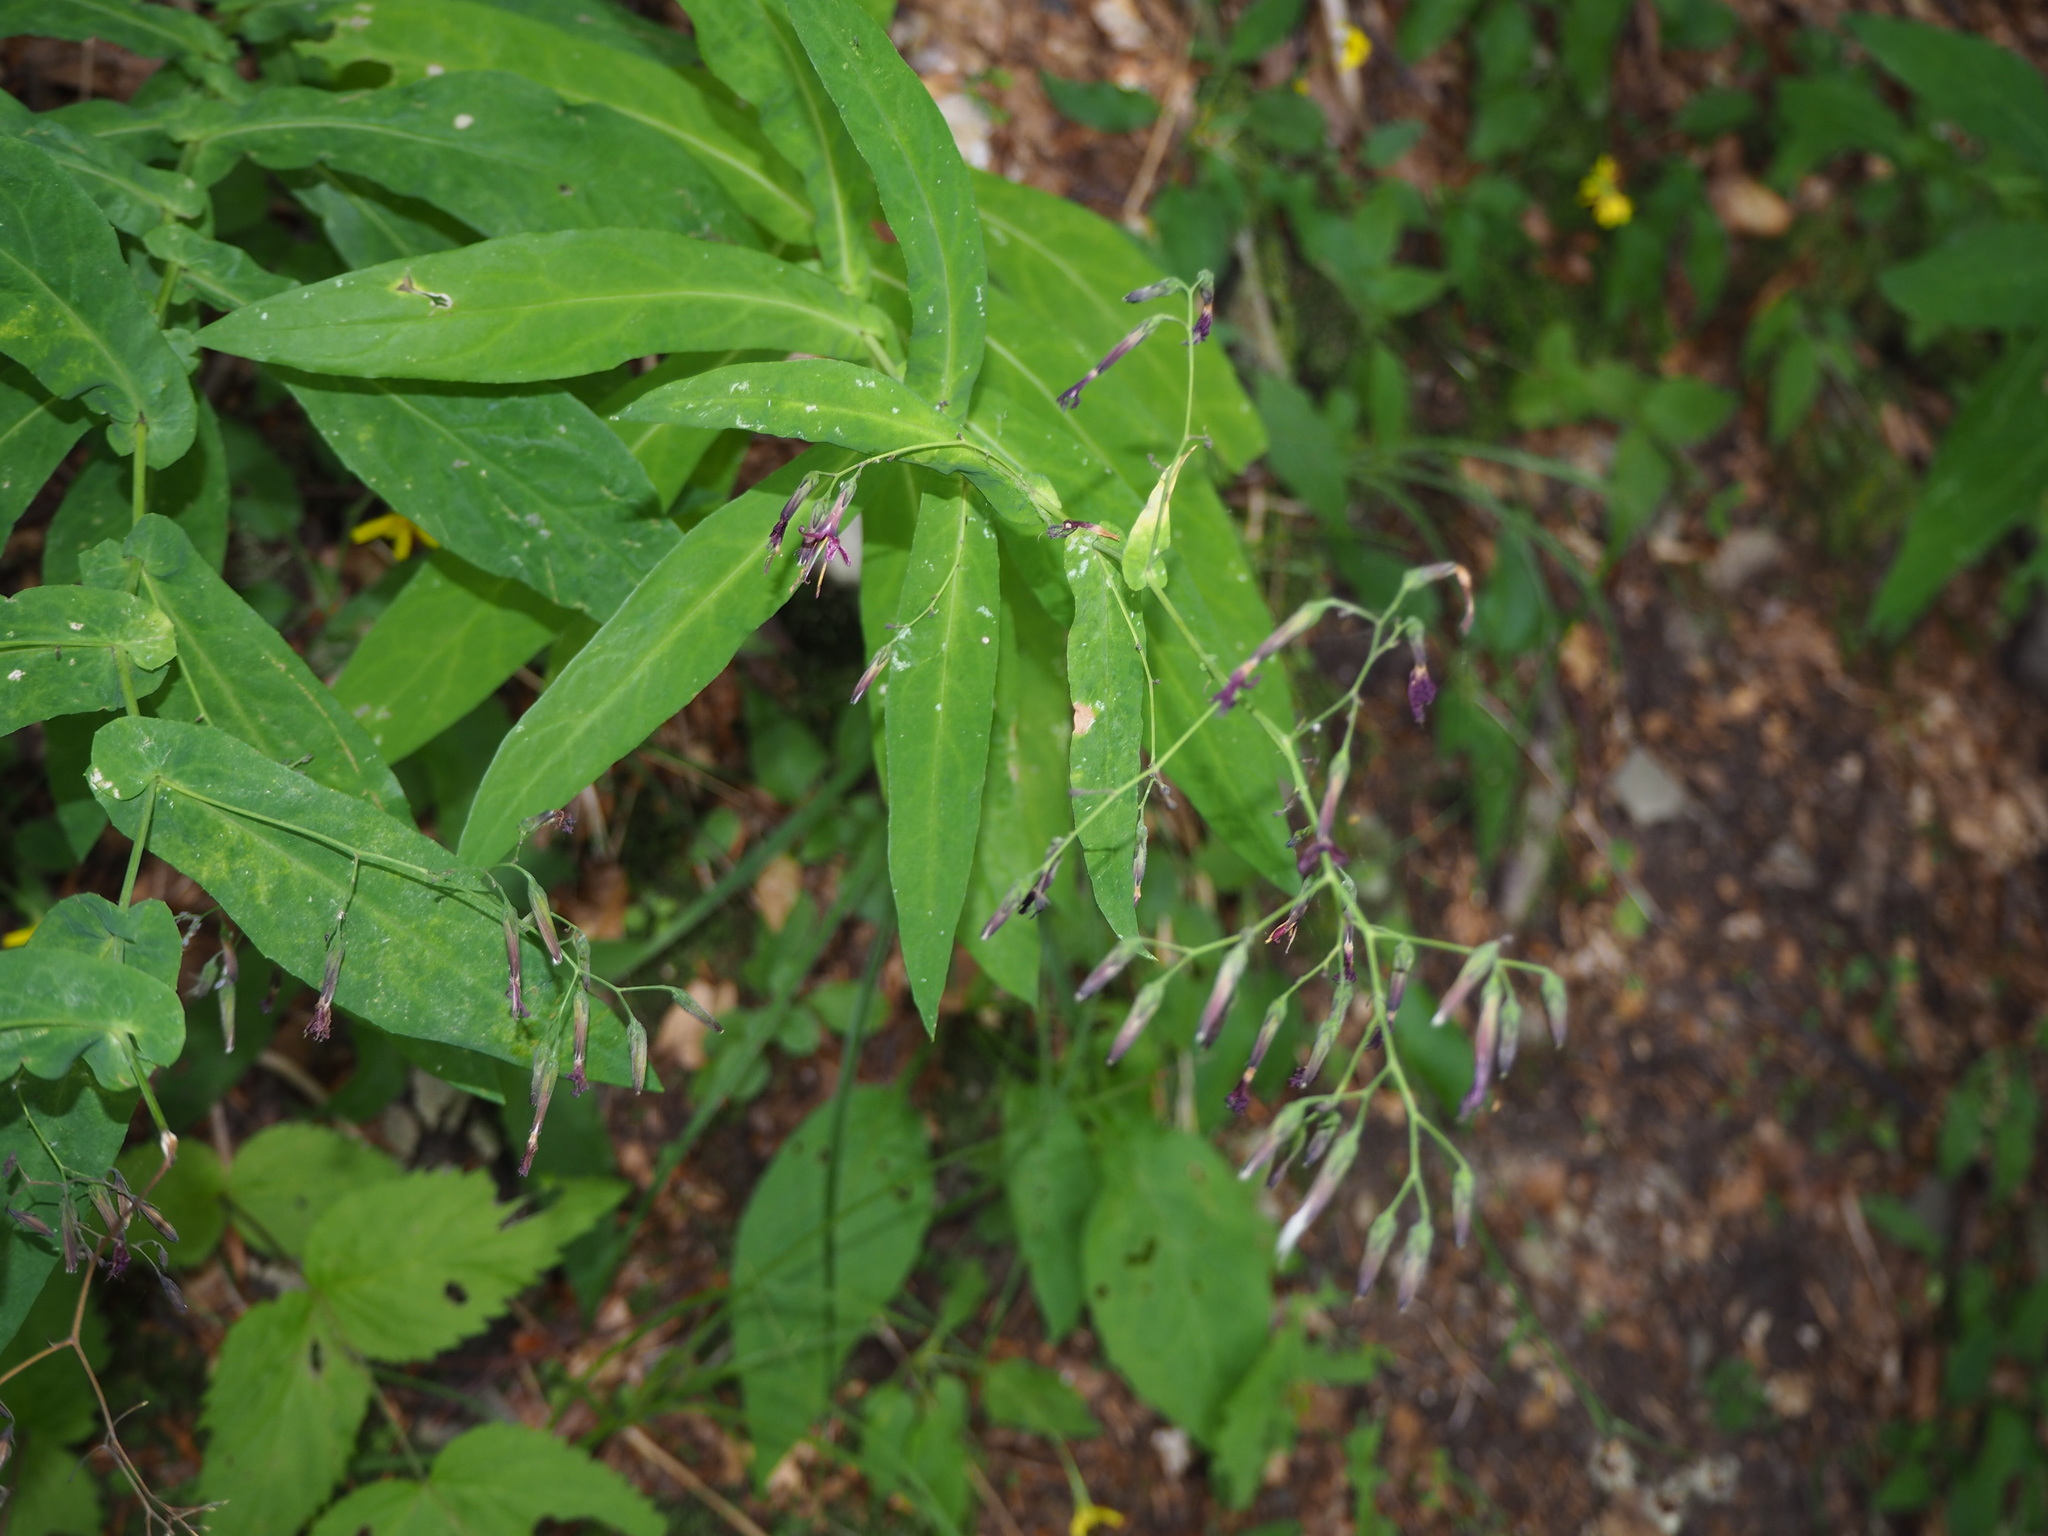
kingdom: Plantae
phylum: Tracheophyta
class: Magnoliopsida
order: Asterales
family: Asteraceae
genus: Prenanthes
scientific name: Prenanthes purpurea
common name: Purple lettuce
